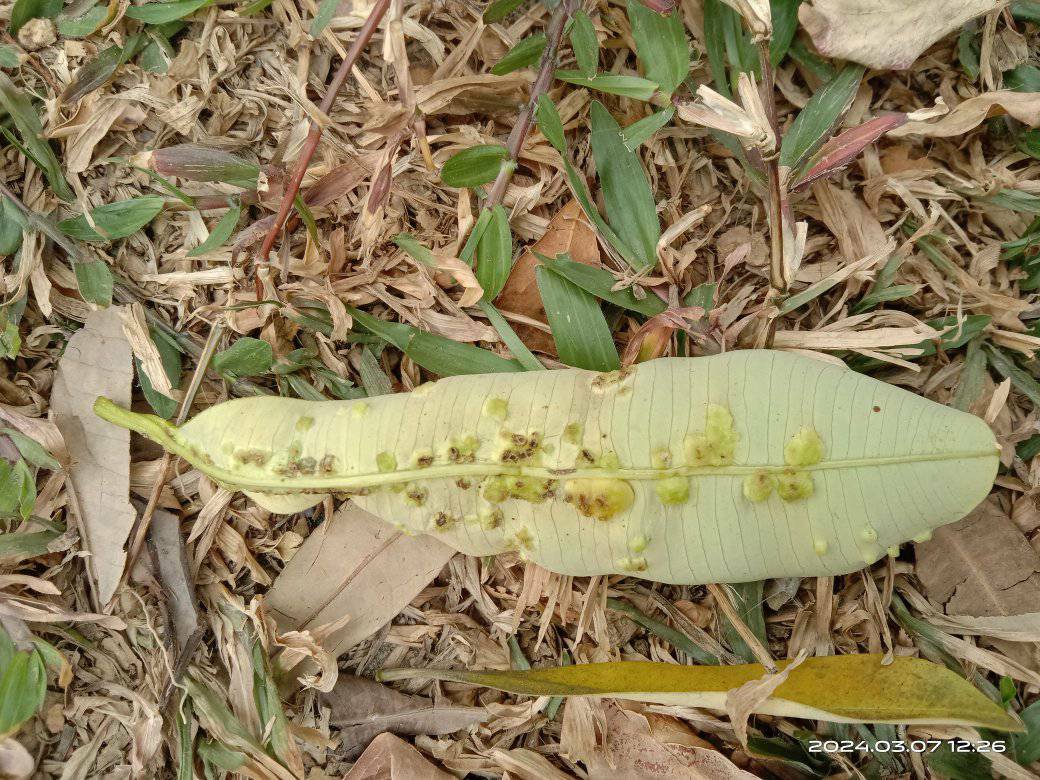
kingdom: Animalia
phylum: Arthropoda
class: Insecta
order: Hemiptera
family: Phacopteronidae
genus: Pseudophacopteron
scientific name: Pseudophacopteron tuberculatum
